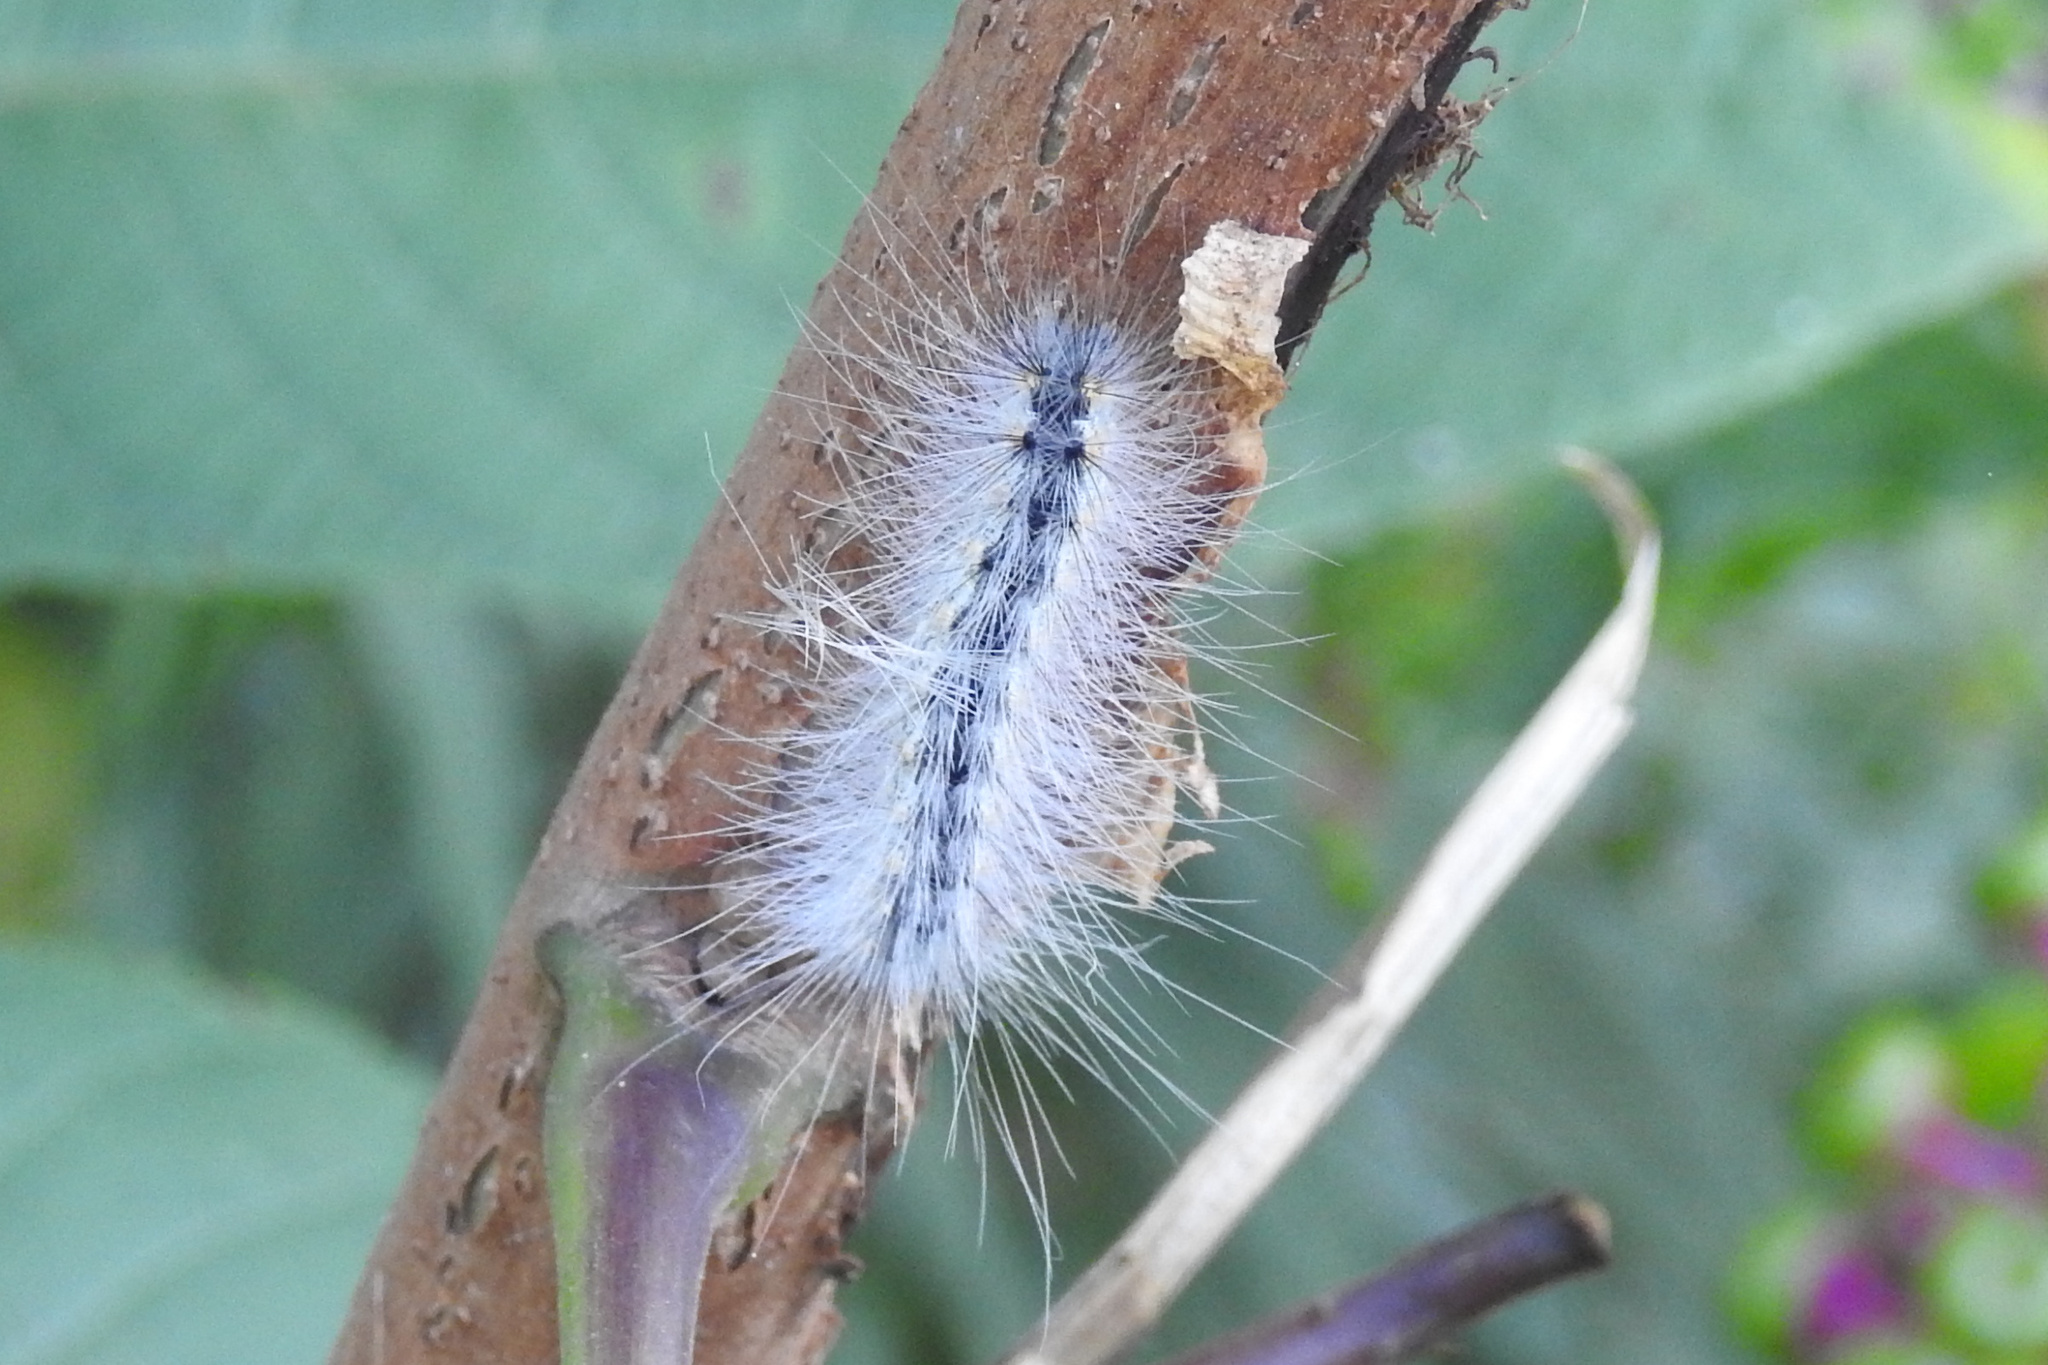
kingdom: Animalia
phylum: Arthropoda
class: Insecta
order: Lepidoptera
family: Erebidae
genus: Hyphantria
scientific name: Hyphantria cunea
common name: American white moth
